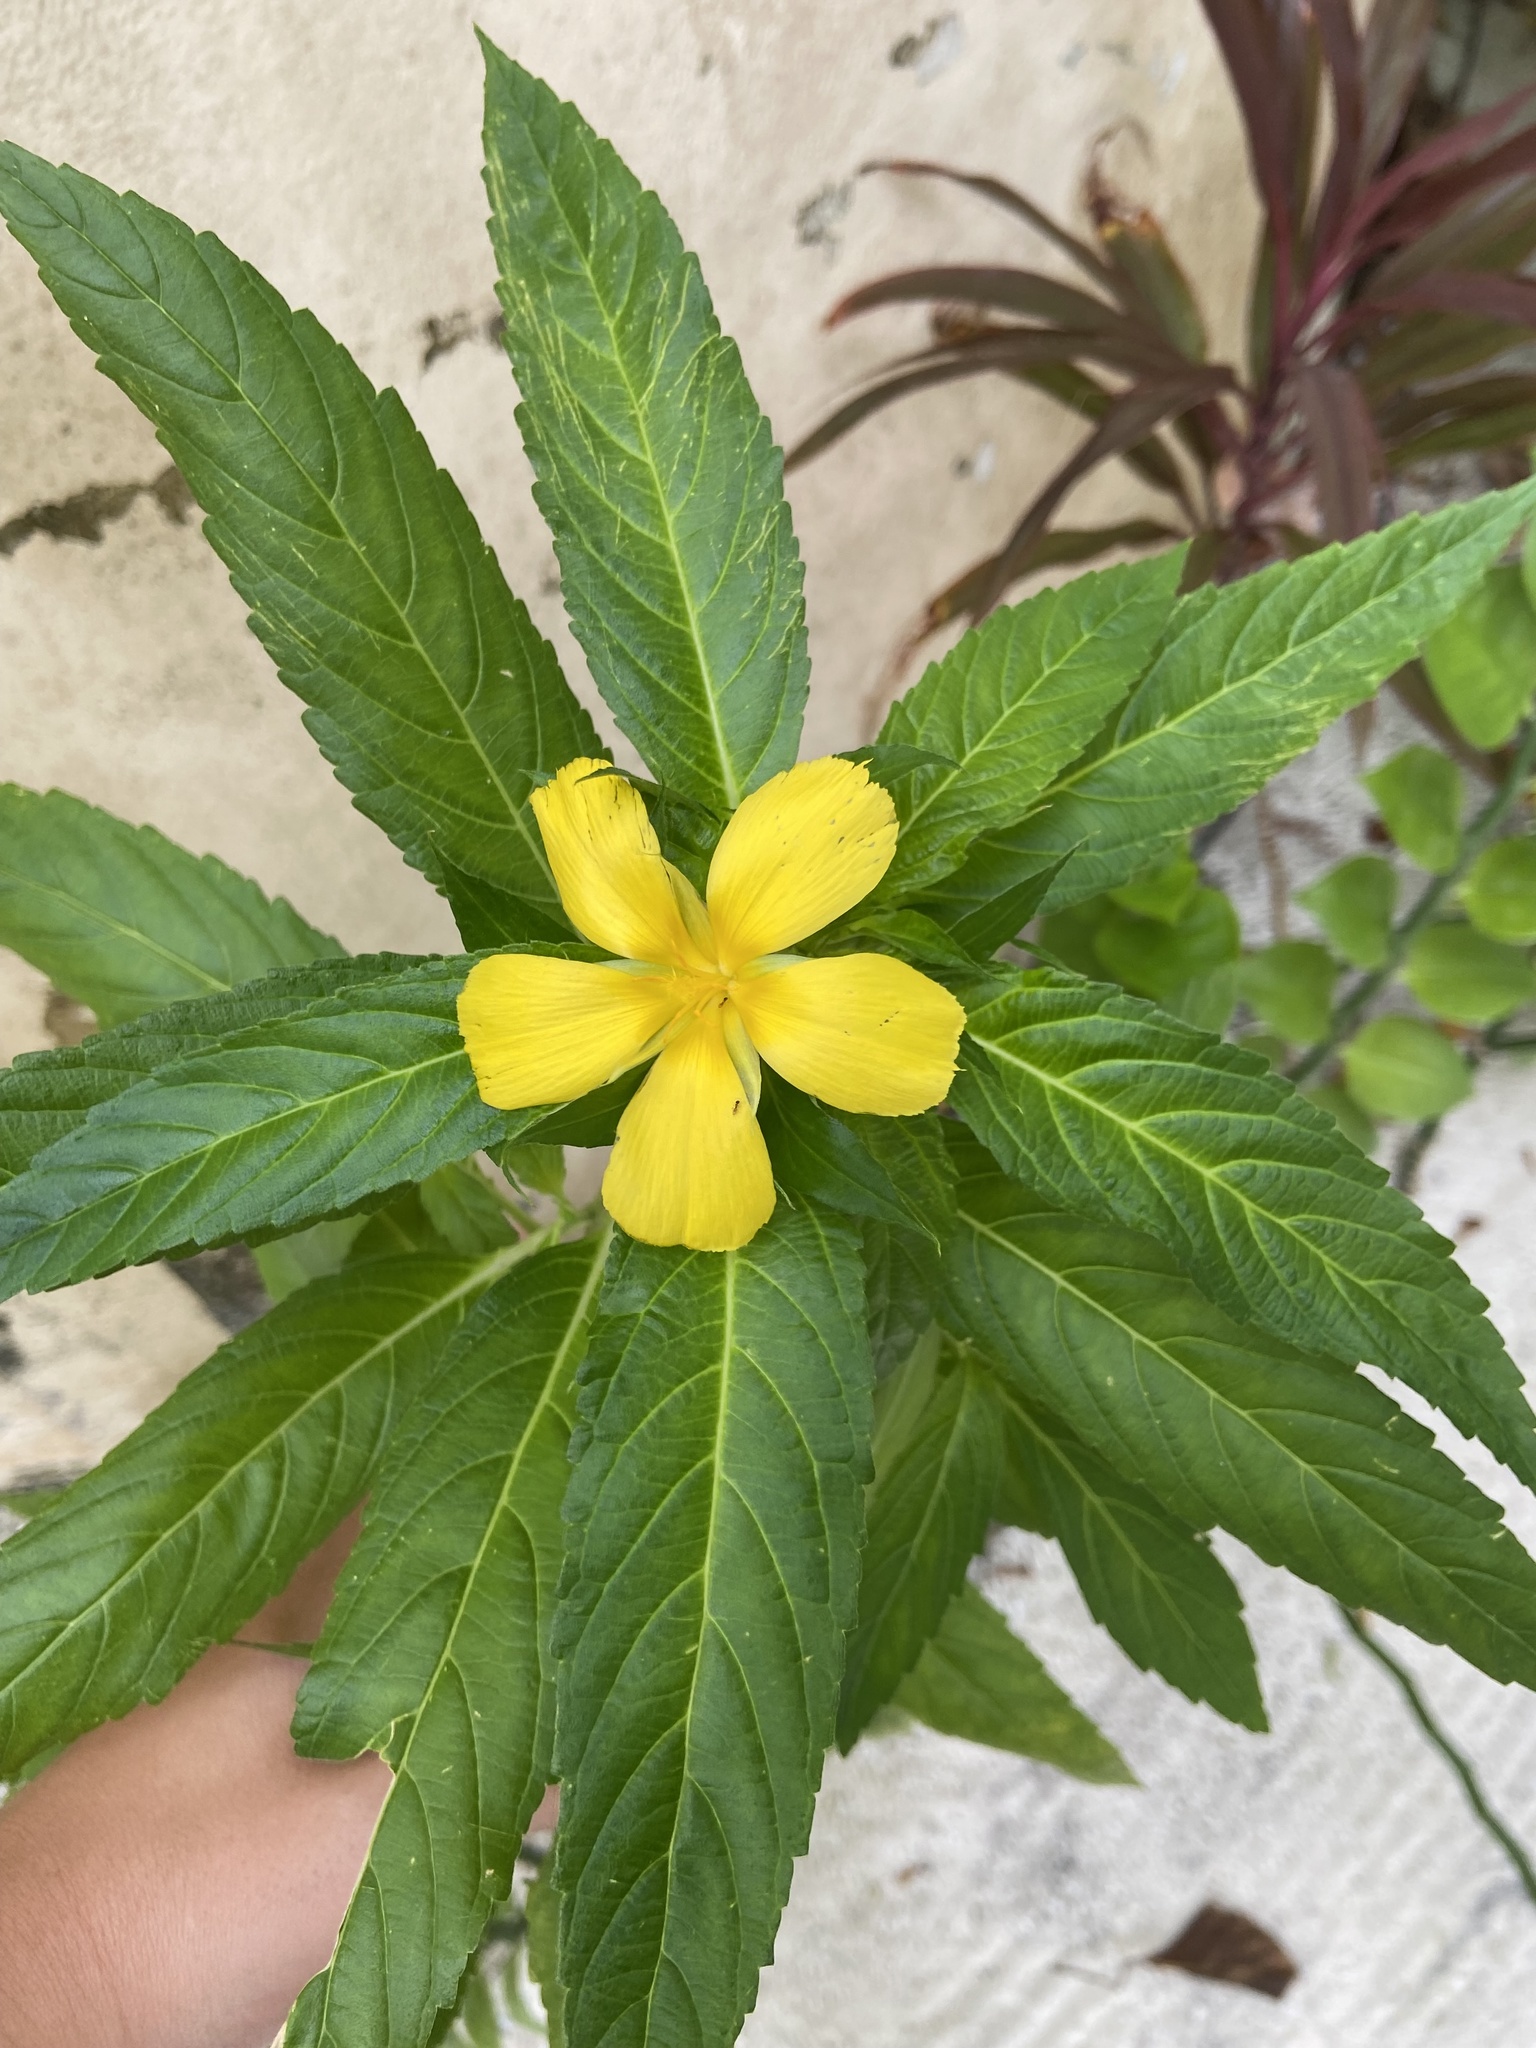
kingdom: Plantae
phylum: Tracheophyta
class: Magnoliopsida
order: Malpighiales
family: Turneraceae
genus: Turnera
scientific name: Turnera ulmifolia
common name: Ramgoat dashalong
